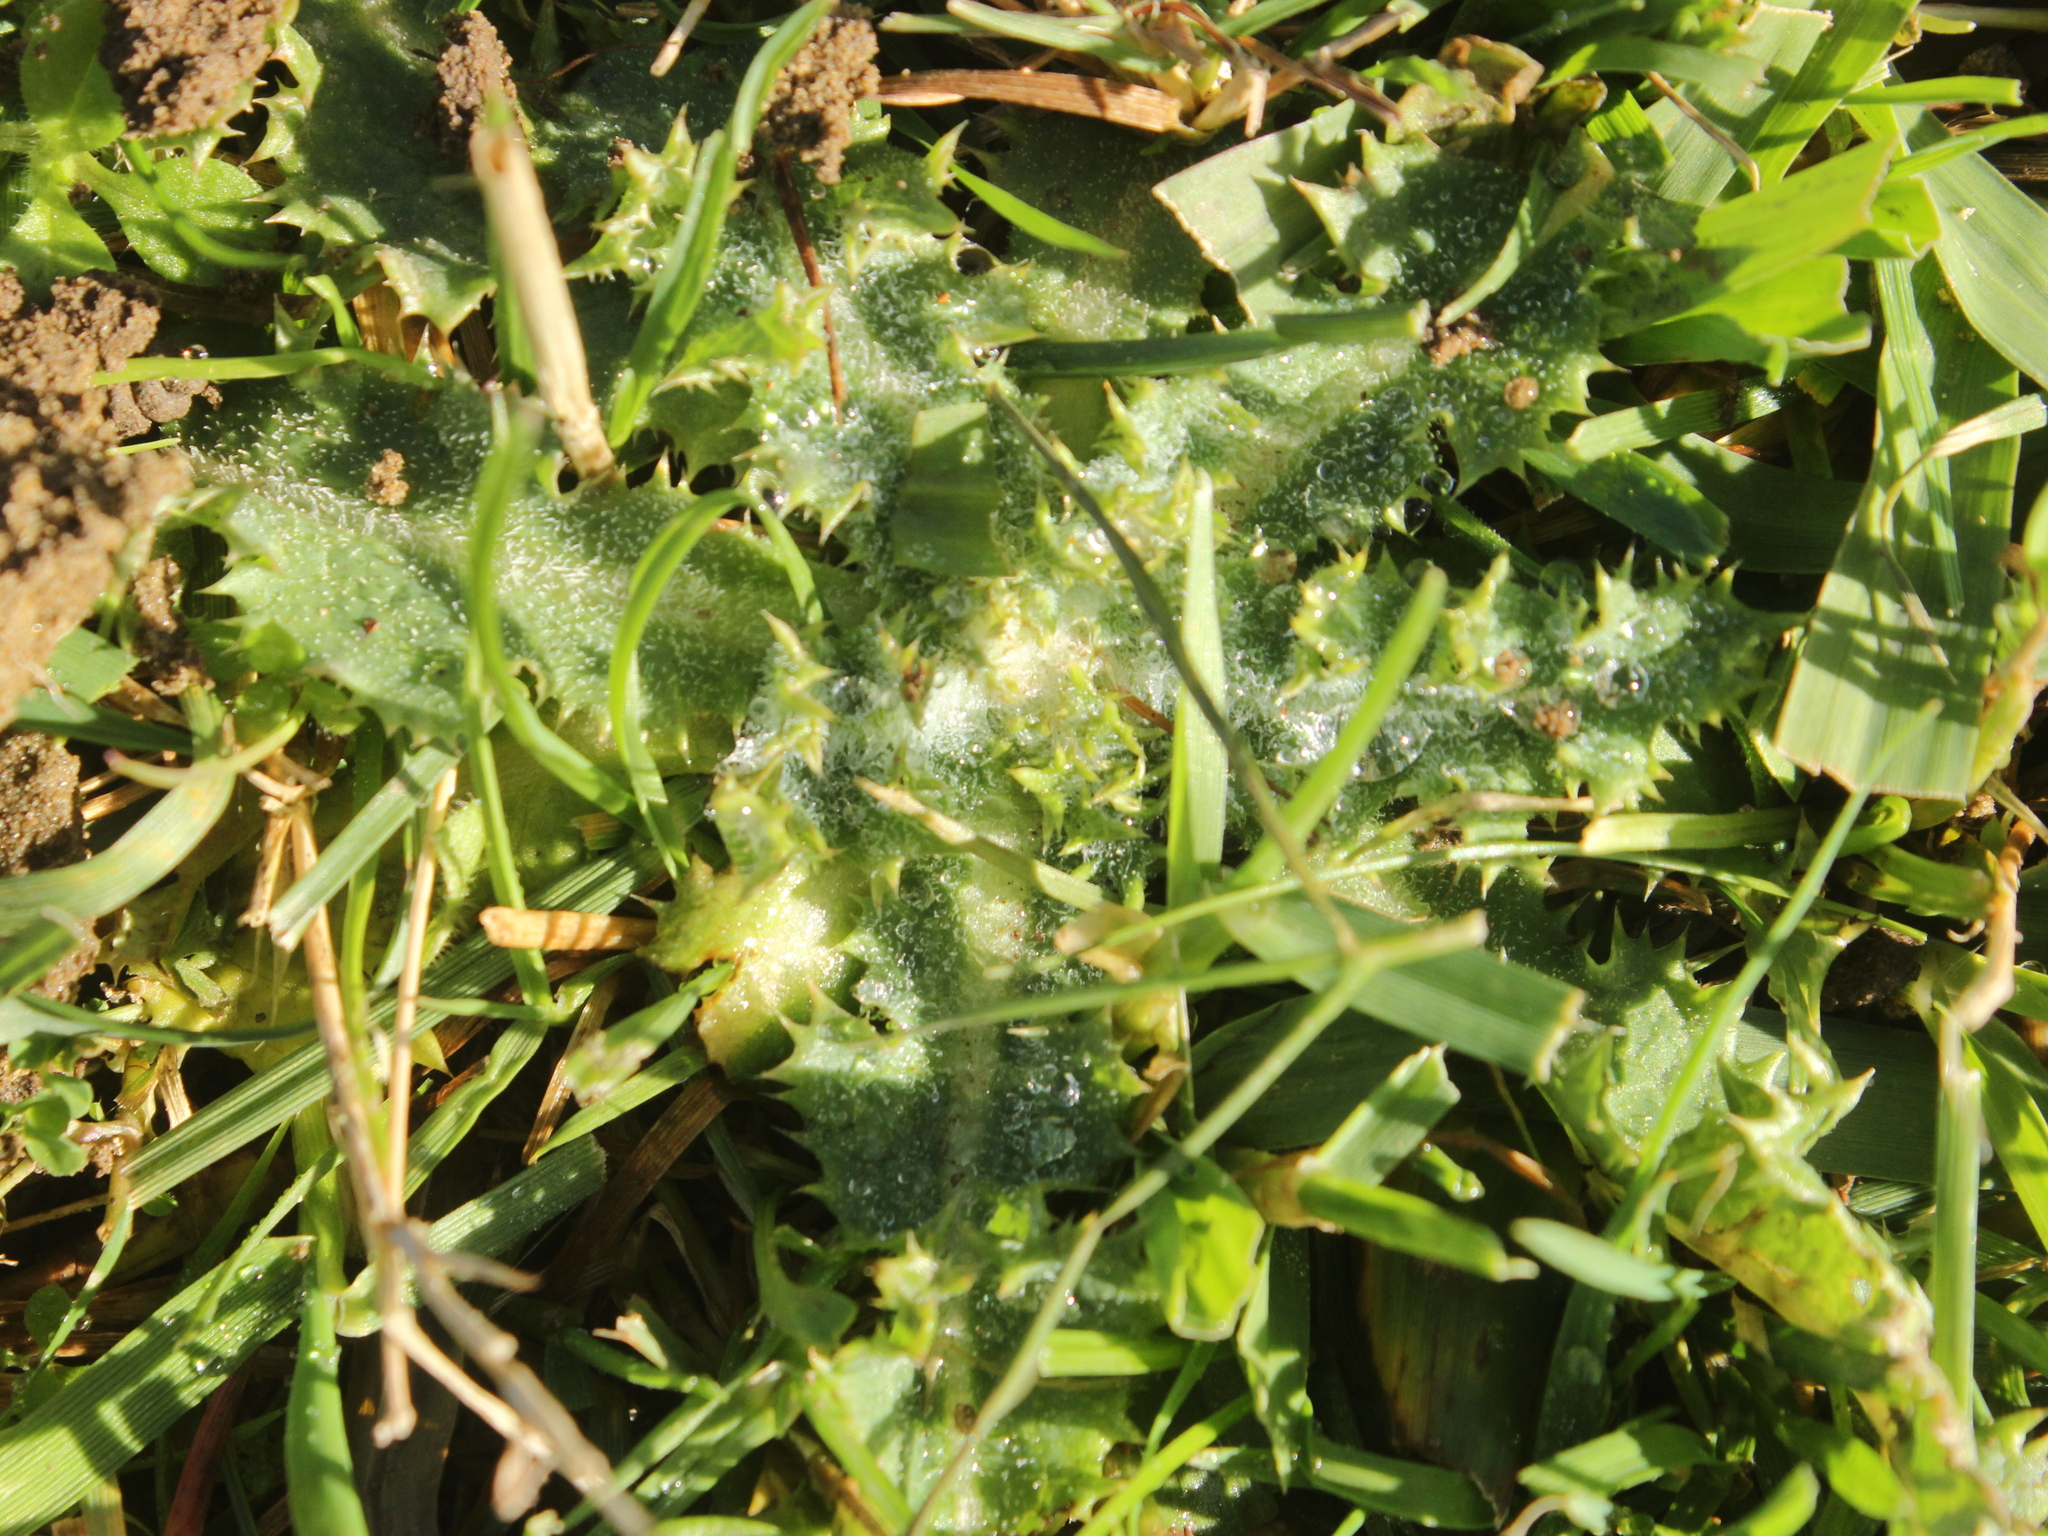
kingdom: Plantae
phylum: Tracheophyta
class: Magnoliopsida
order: Asterales
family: Asteraceae
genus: Sonchus
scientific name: Sonchus asper
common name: Prickly sow-thistle
